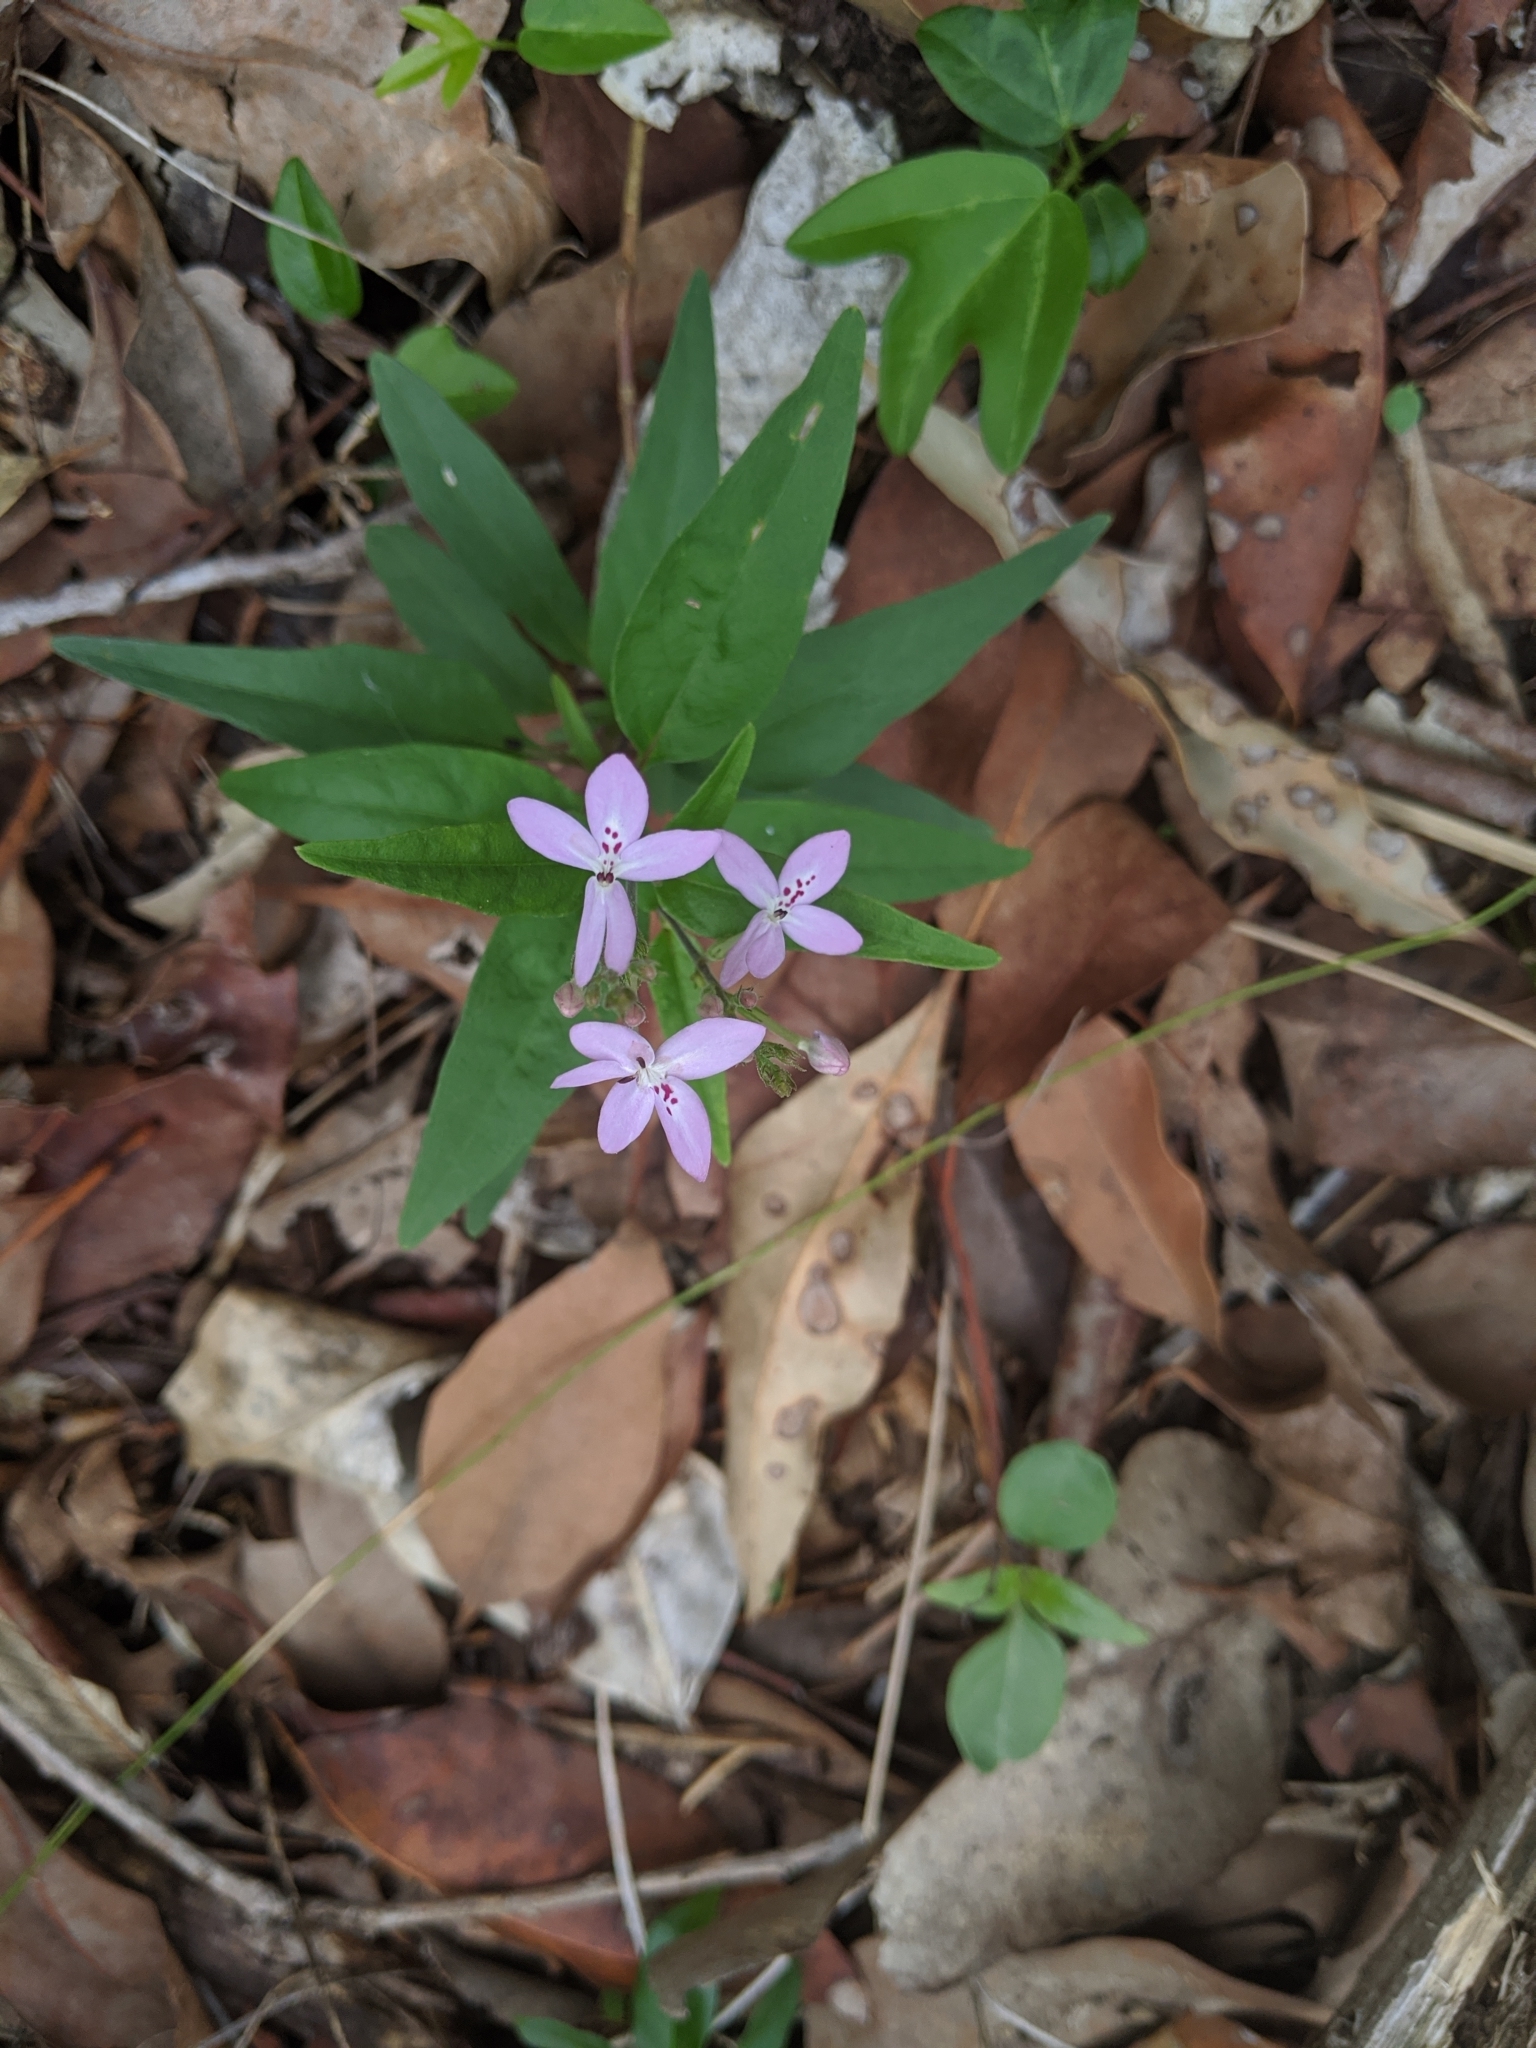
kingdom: Plantae
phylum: Tracheophyta
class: Magnoliopsida
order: Lamiales
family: Acanthaceae
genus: Pseuderanthemum
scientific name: Pseuderanthemum variabile
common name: Night and afternoon
